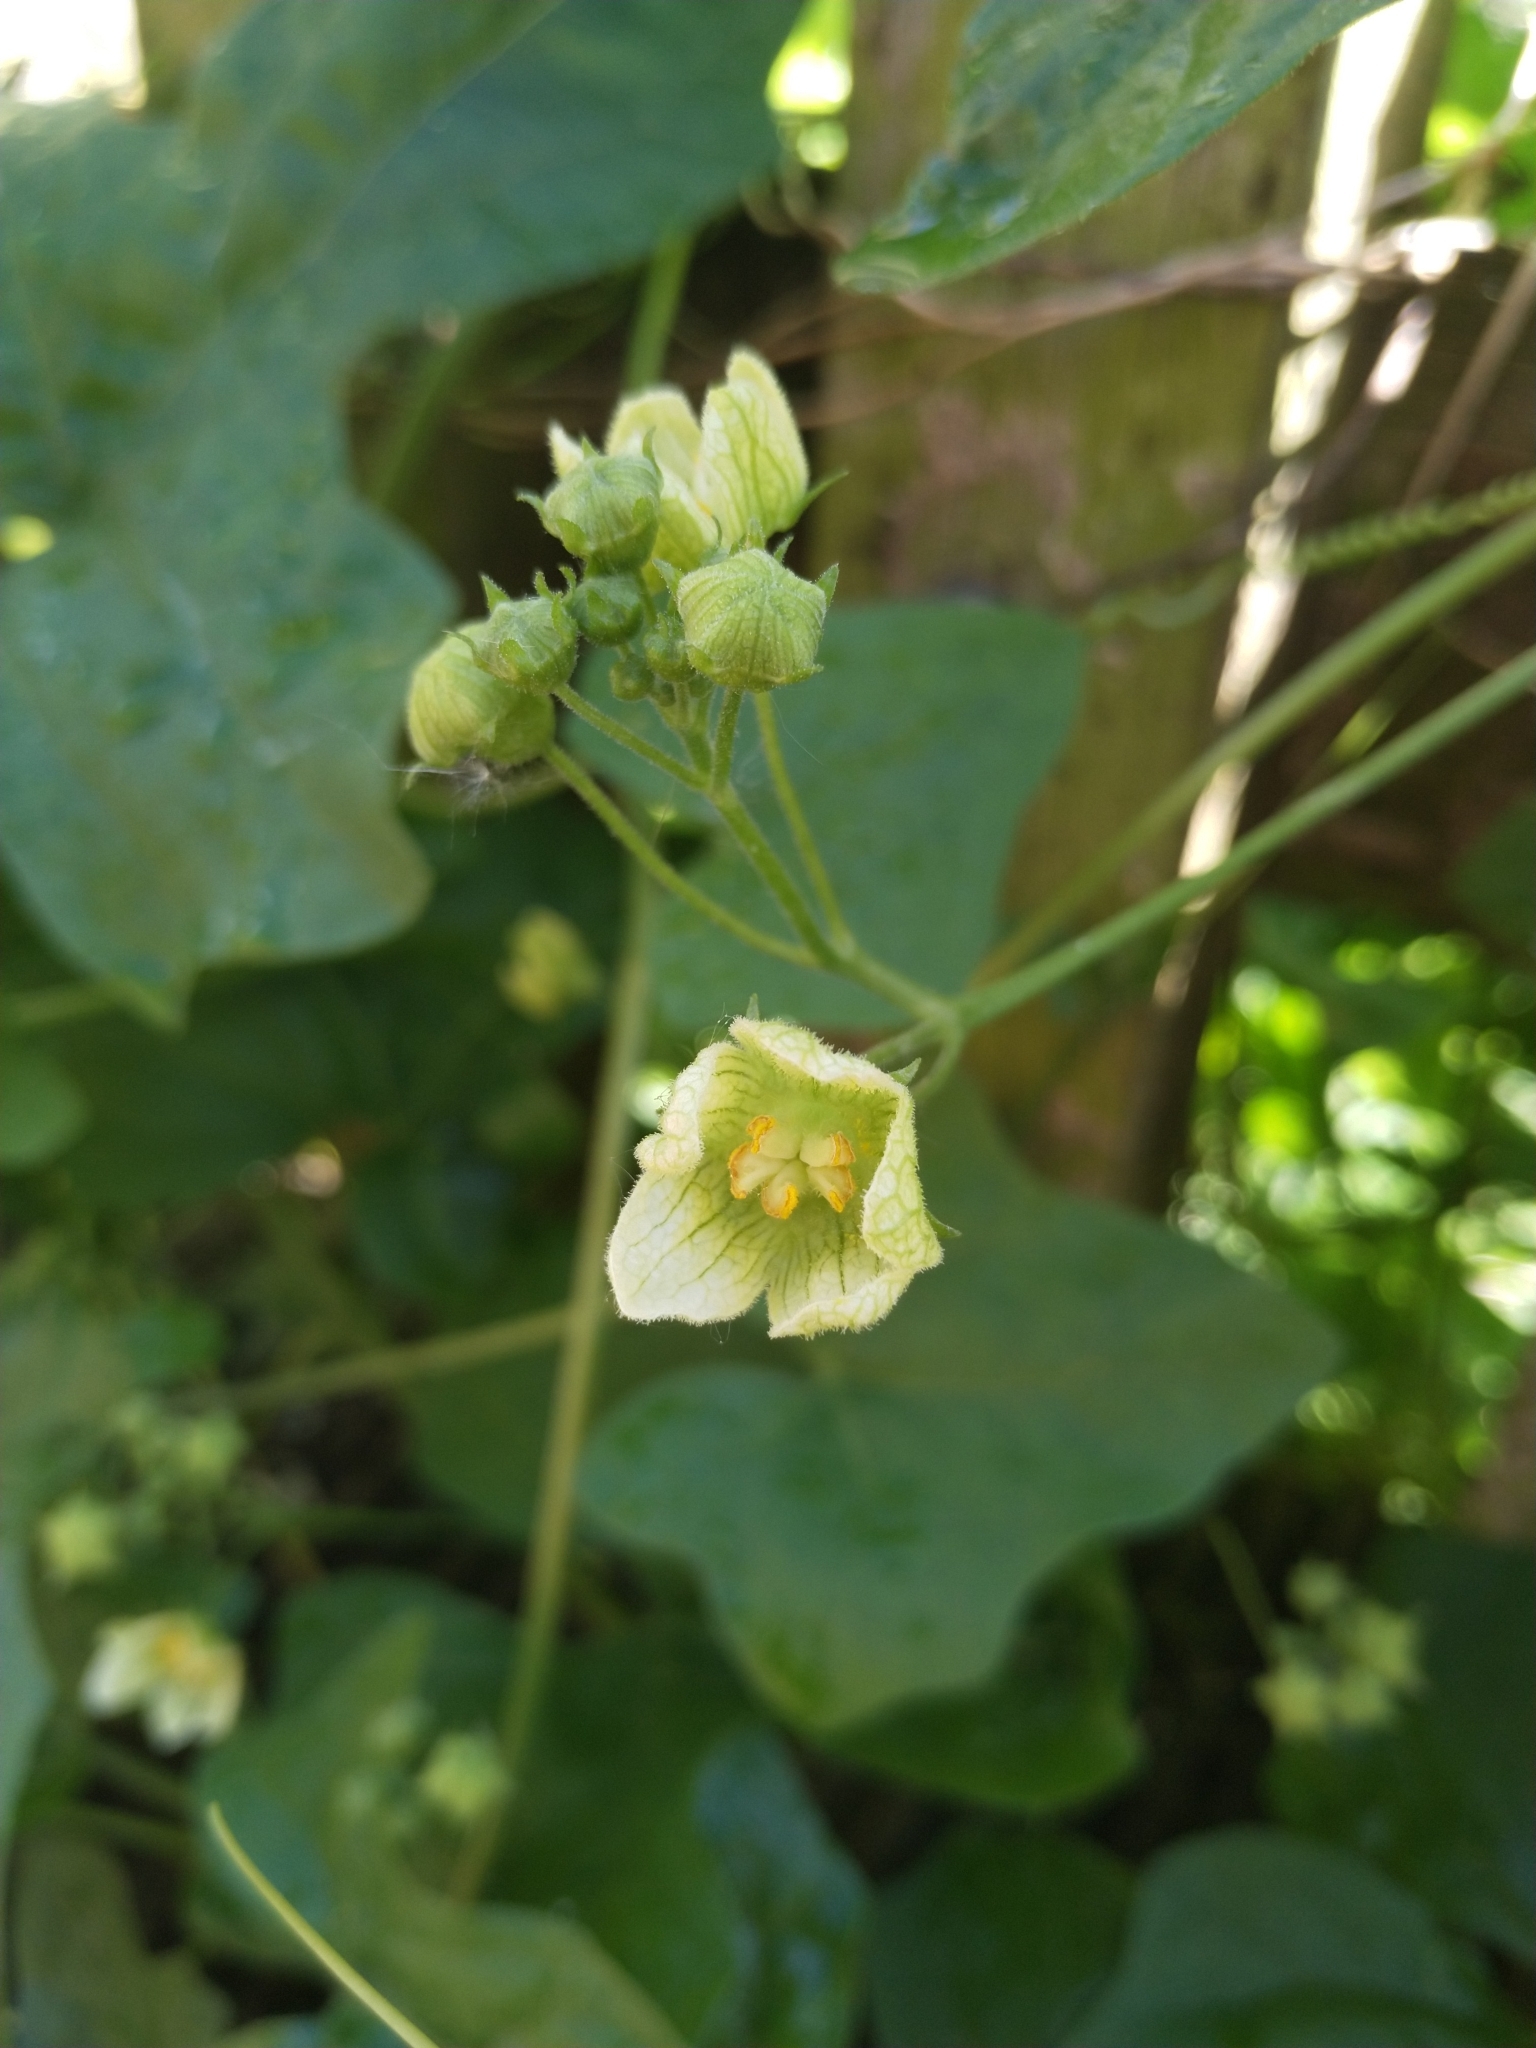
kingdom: Plantae
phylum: Tracheophyta
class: Magnoliopsida
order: Cucurbitales
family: Cucurbitaceae
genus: Bryonia
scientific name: Bryonia cretica
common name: Cretan bryony
